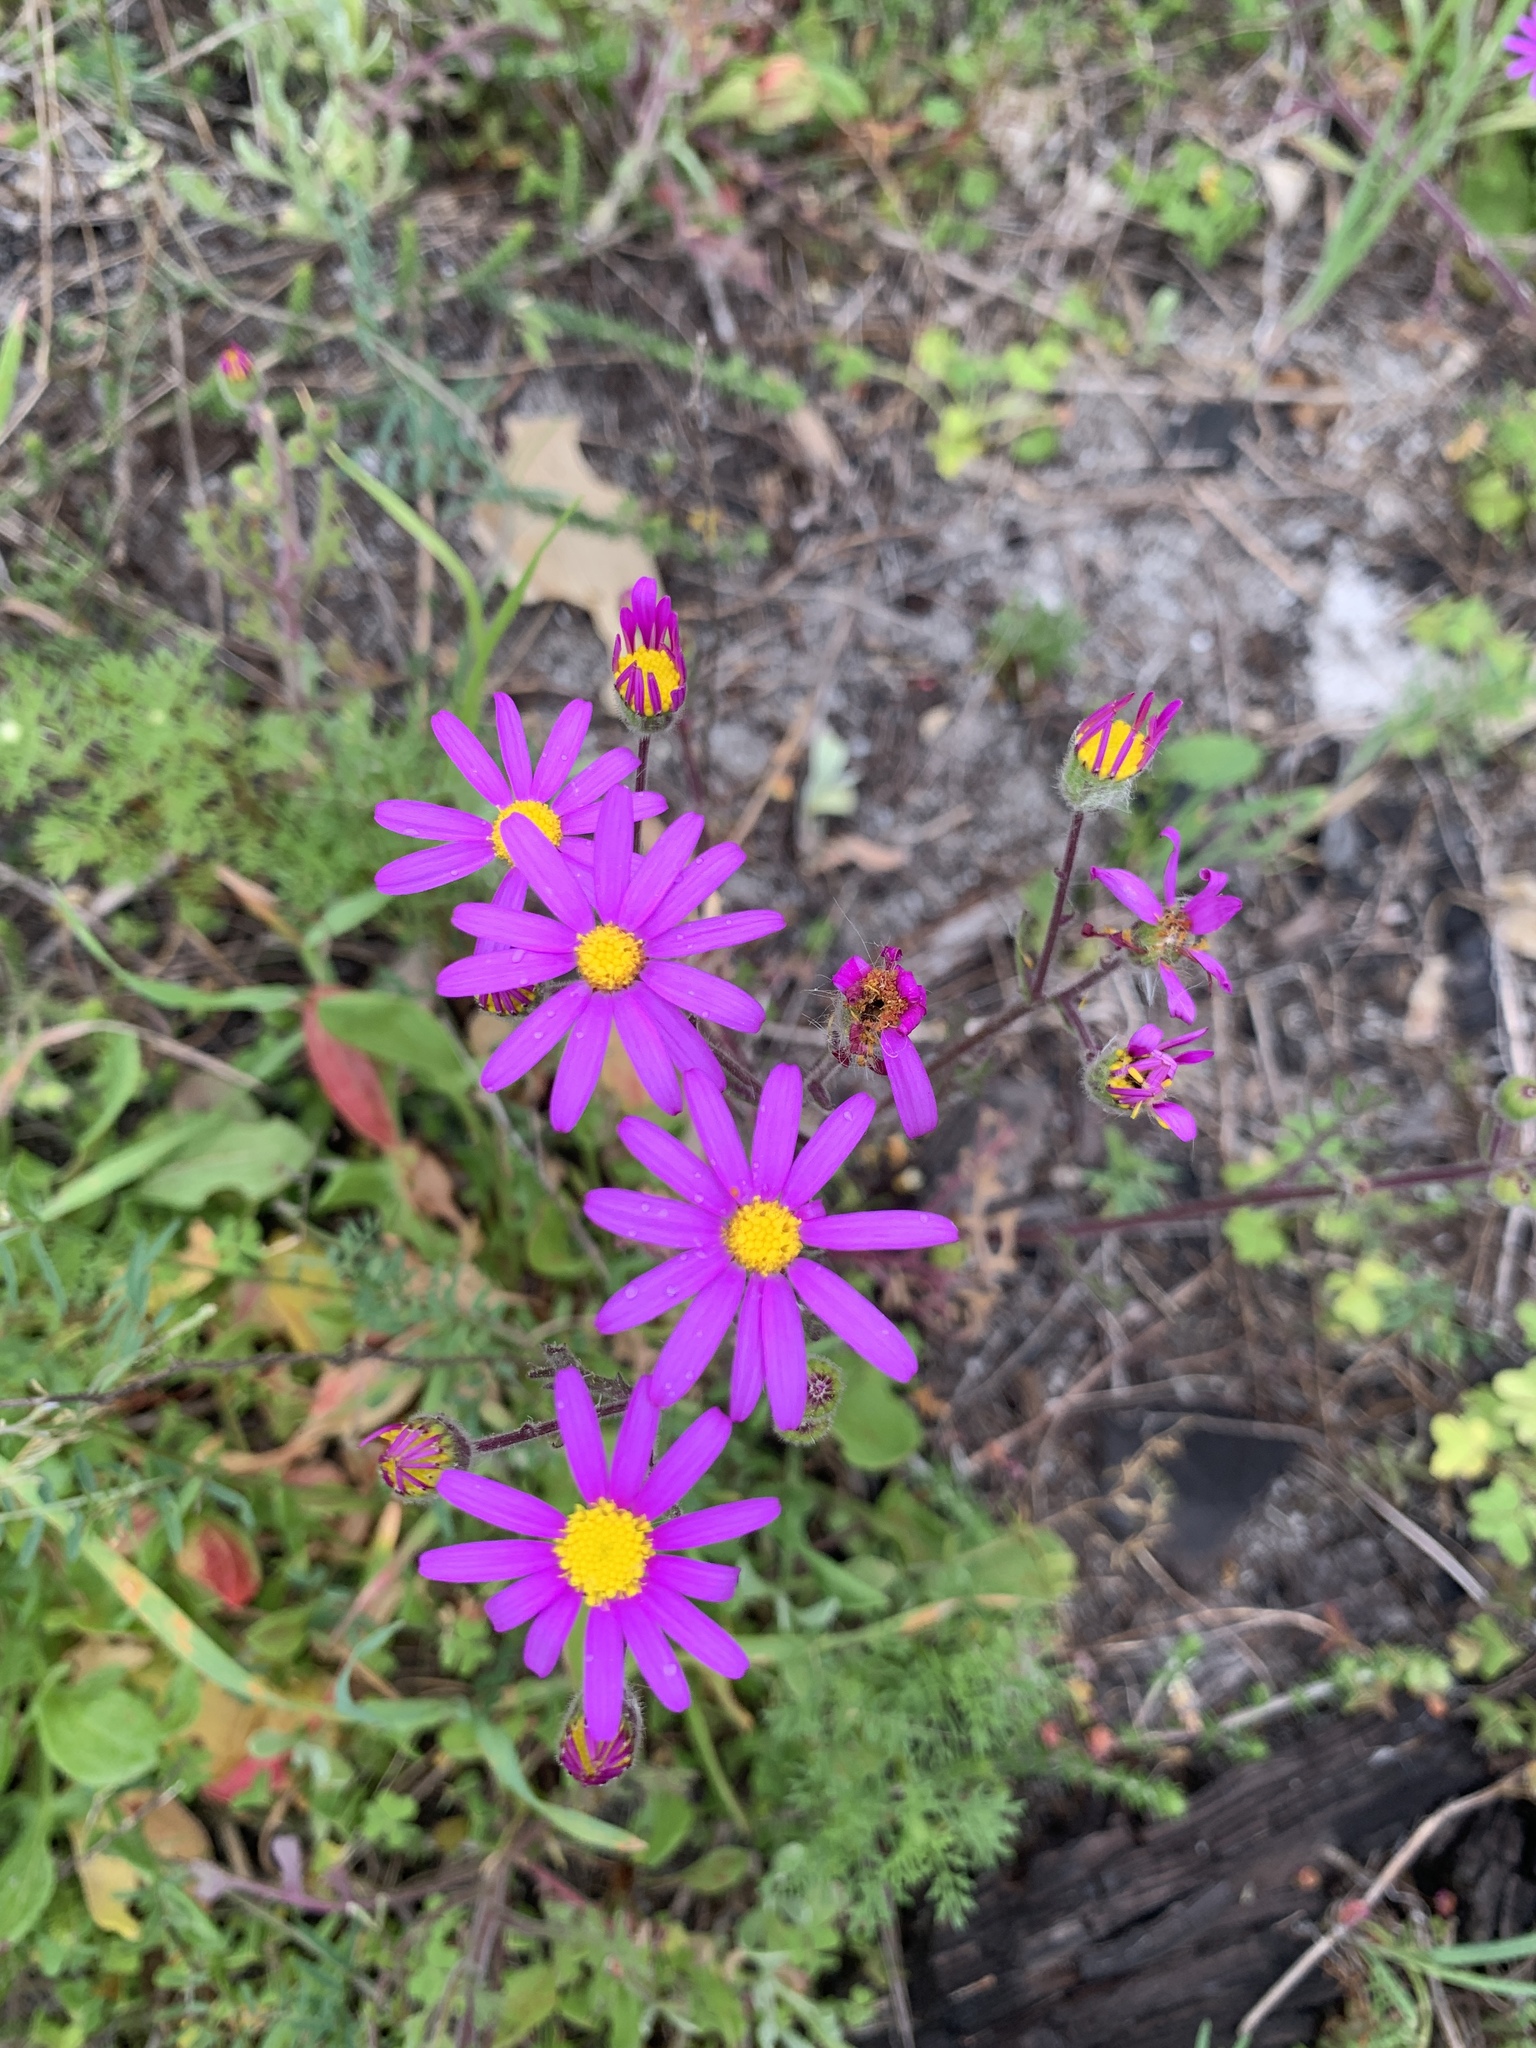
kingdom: Plantae
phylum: Tracheophyta
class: Magnoliopsida
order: Asterales
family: Asteraceae
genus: Senecio
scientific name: Senecio arenarius
